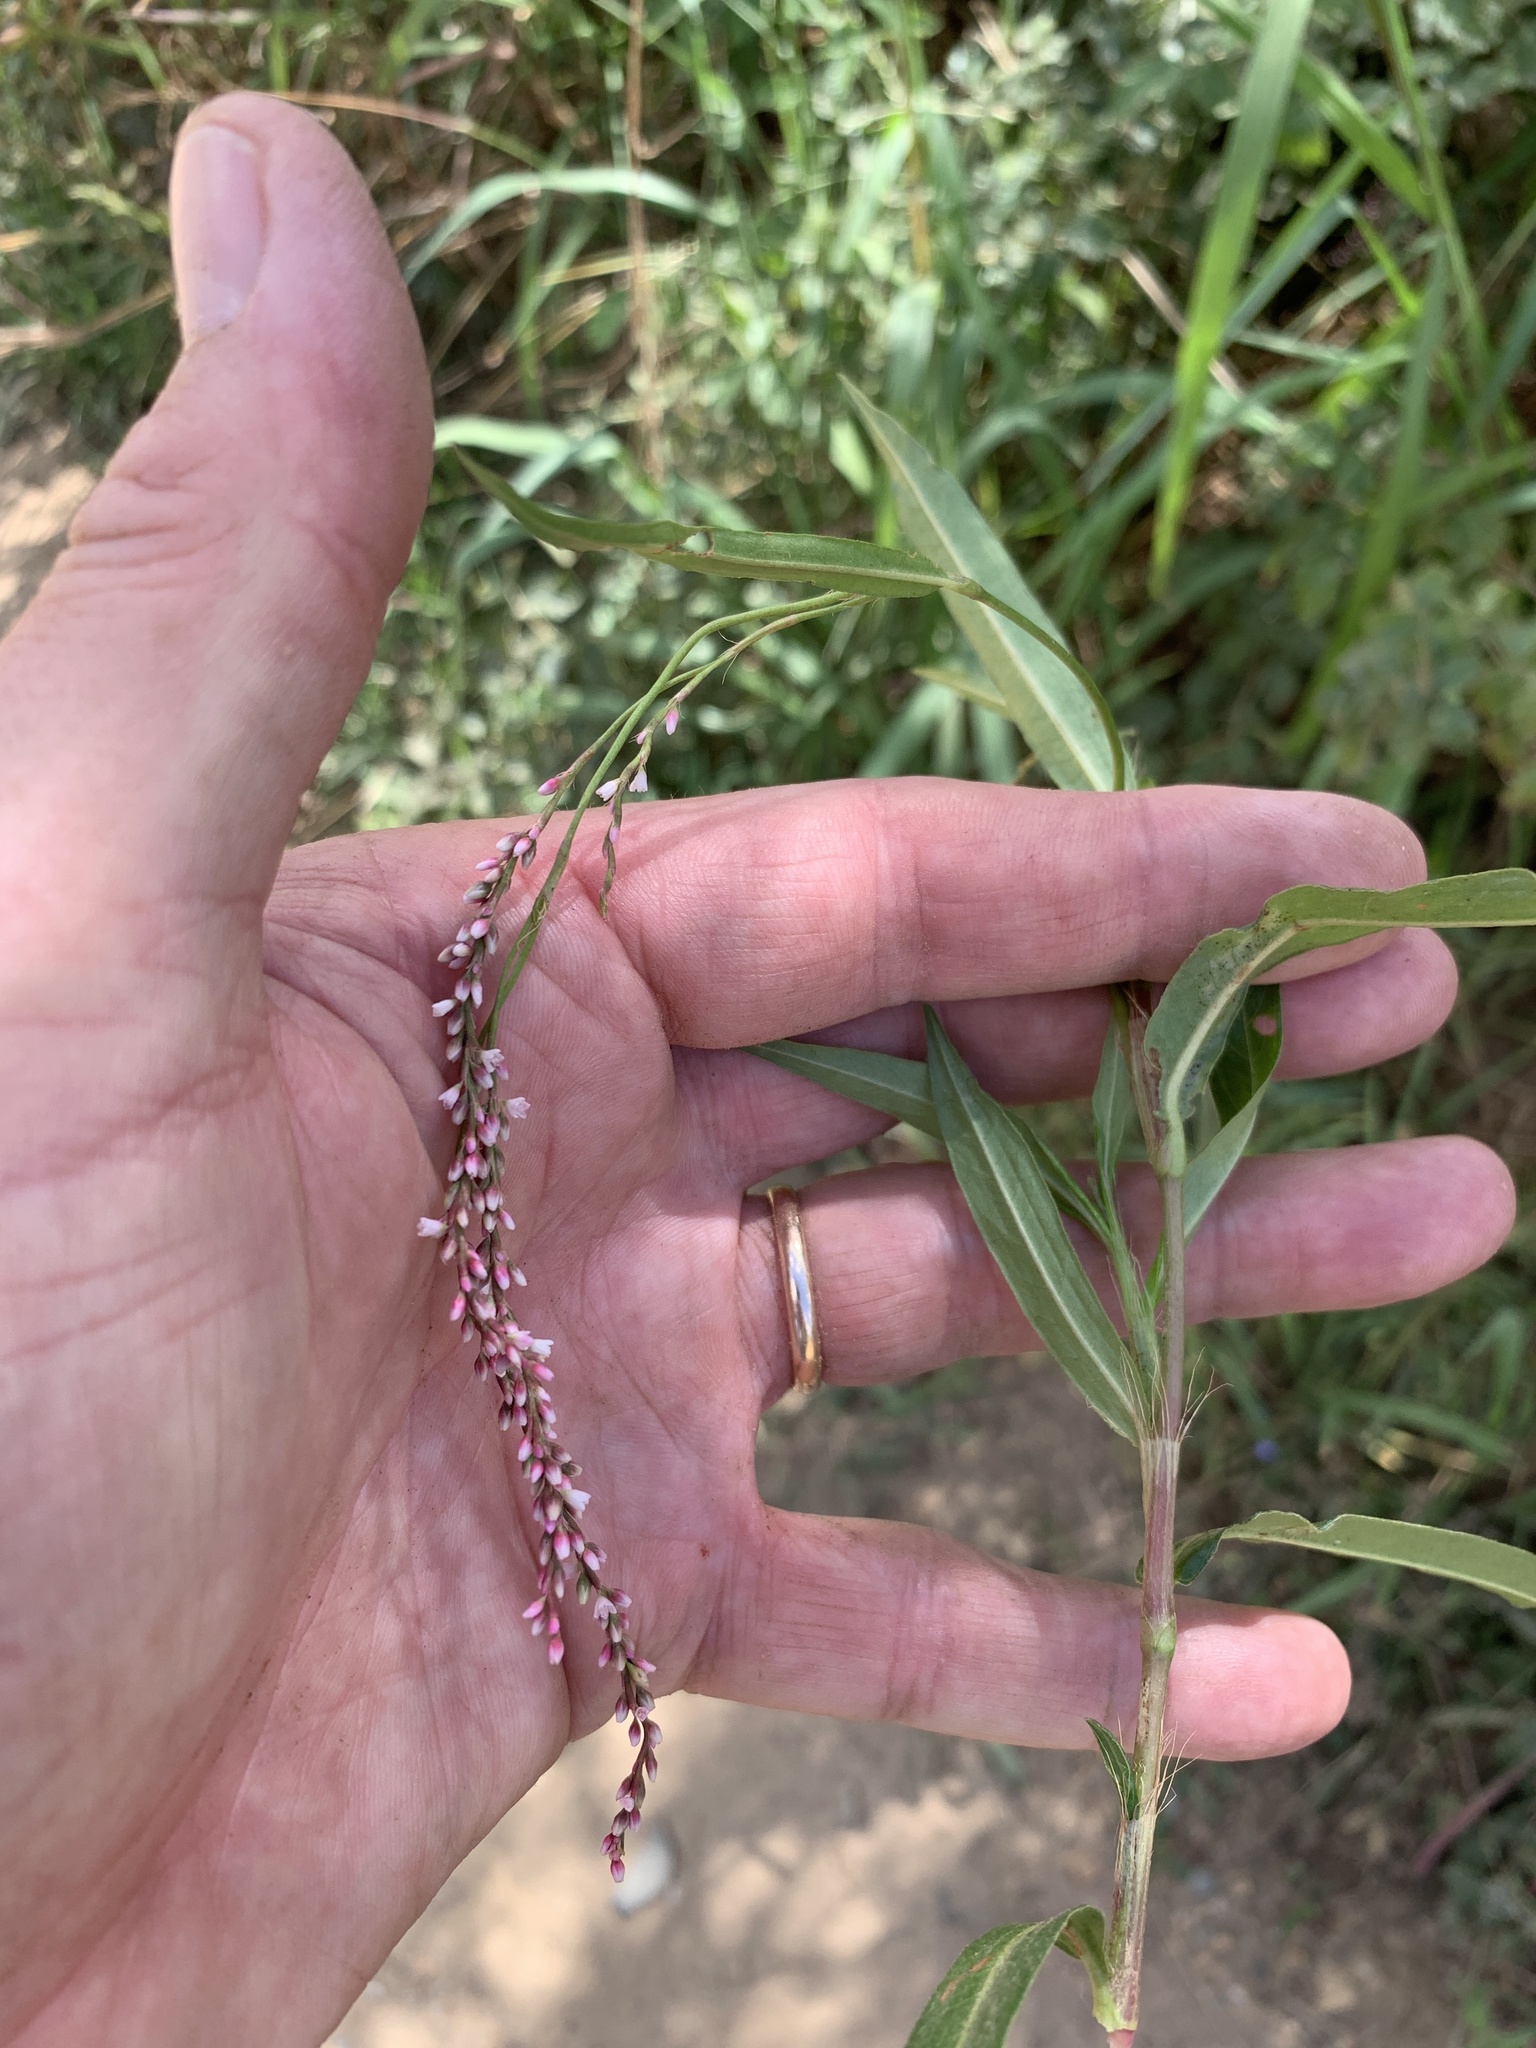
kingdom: Plantae
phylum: Tracheophyta
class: Magnoliopsida
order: Caryophyllales
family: Polygonaceae
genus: Persicaria
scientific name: Persicaria decipiens
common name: Willow-weed
